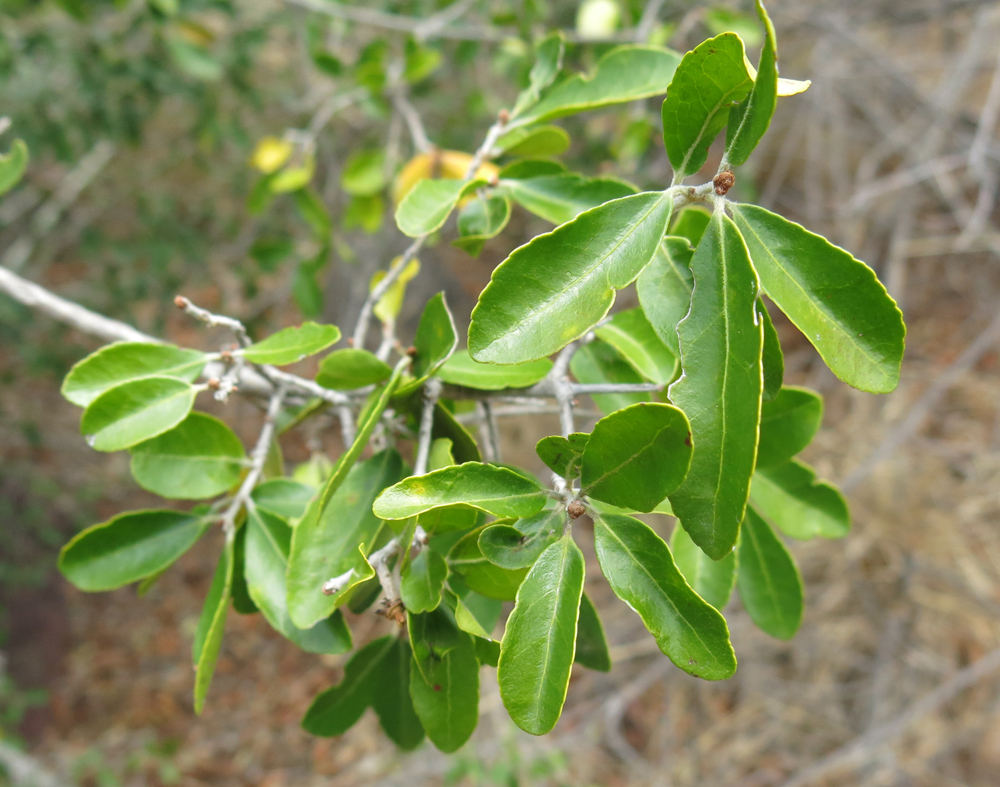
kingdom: Plantae
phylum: Tracheophyta
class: Magnoliopsida
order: Celastrales
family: Celastraceae
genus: Loeseneriella
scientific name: Loeseneriella crenata
